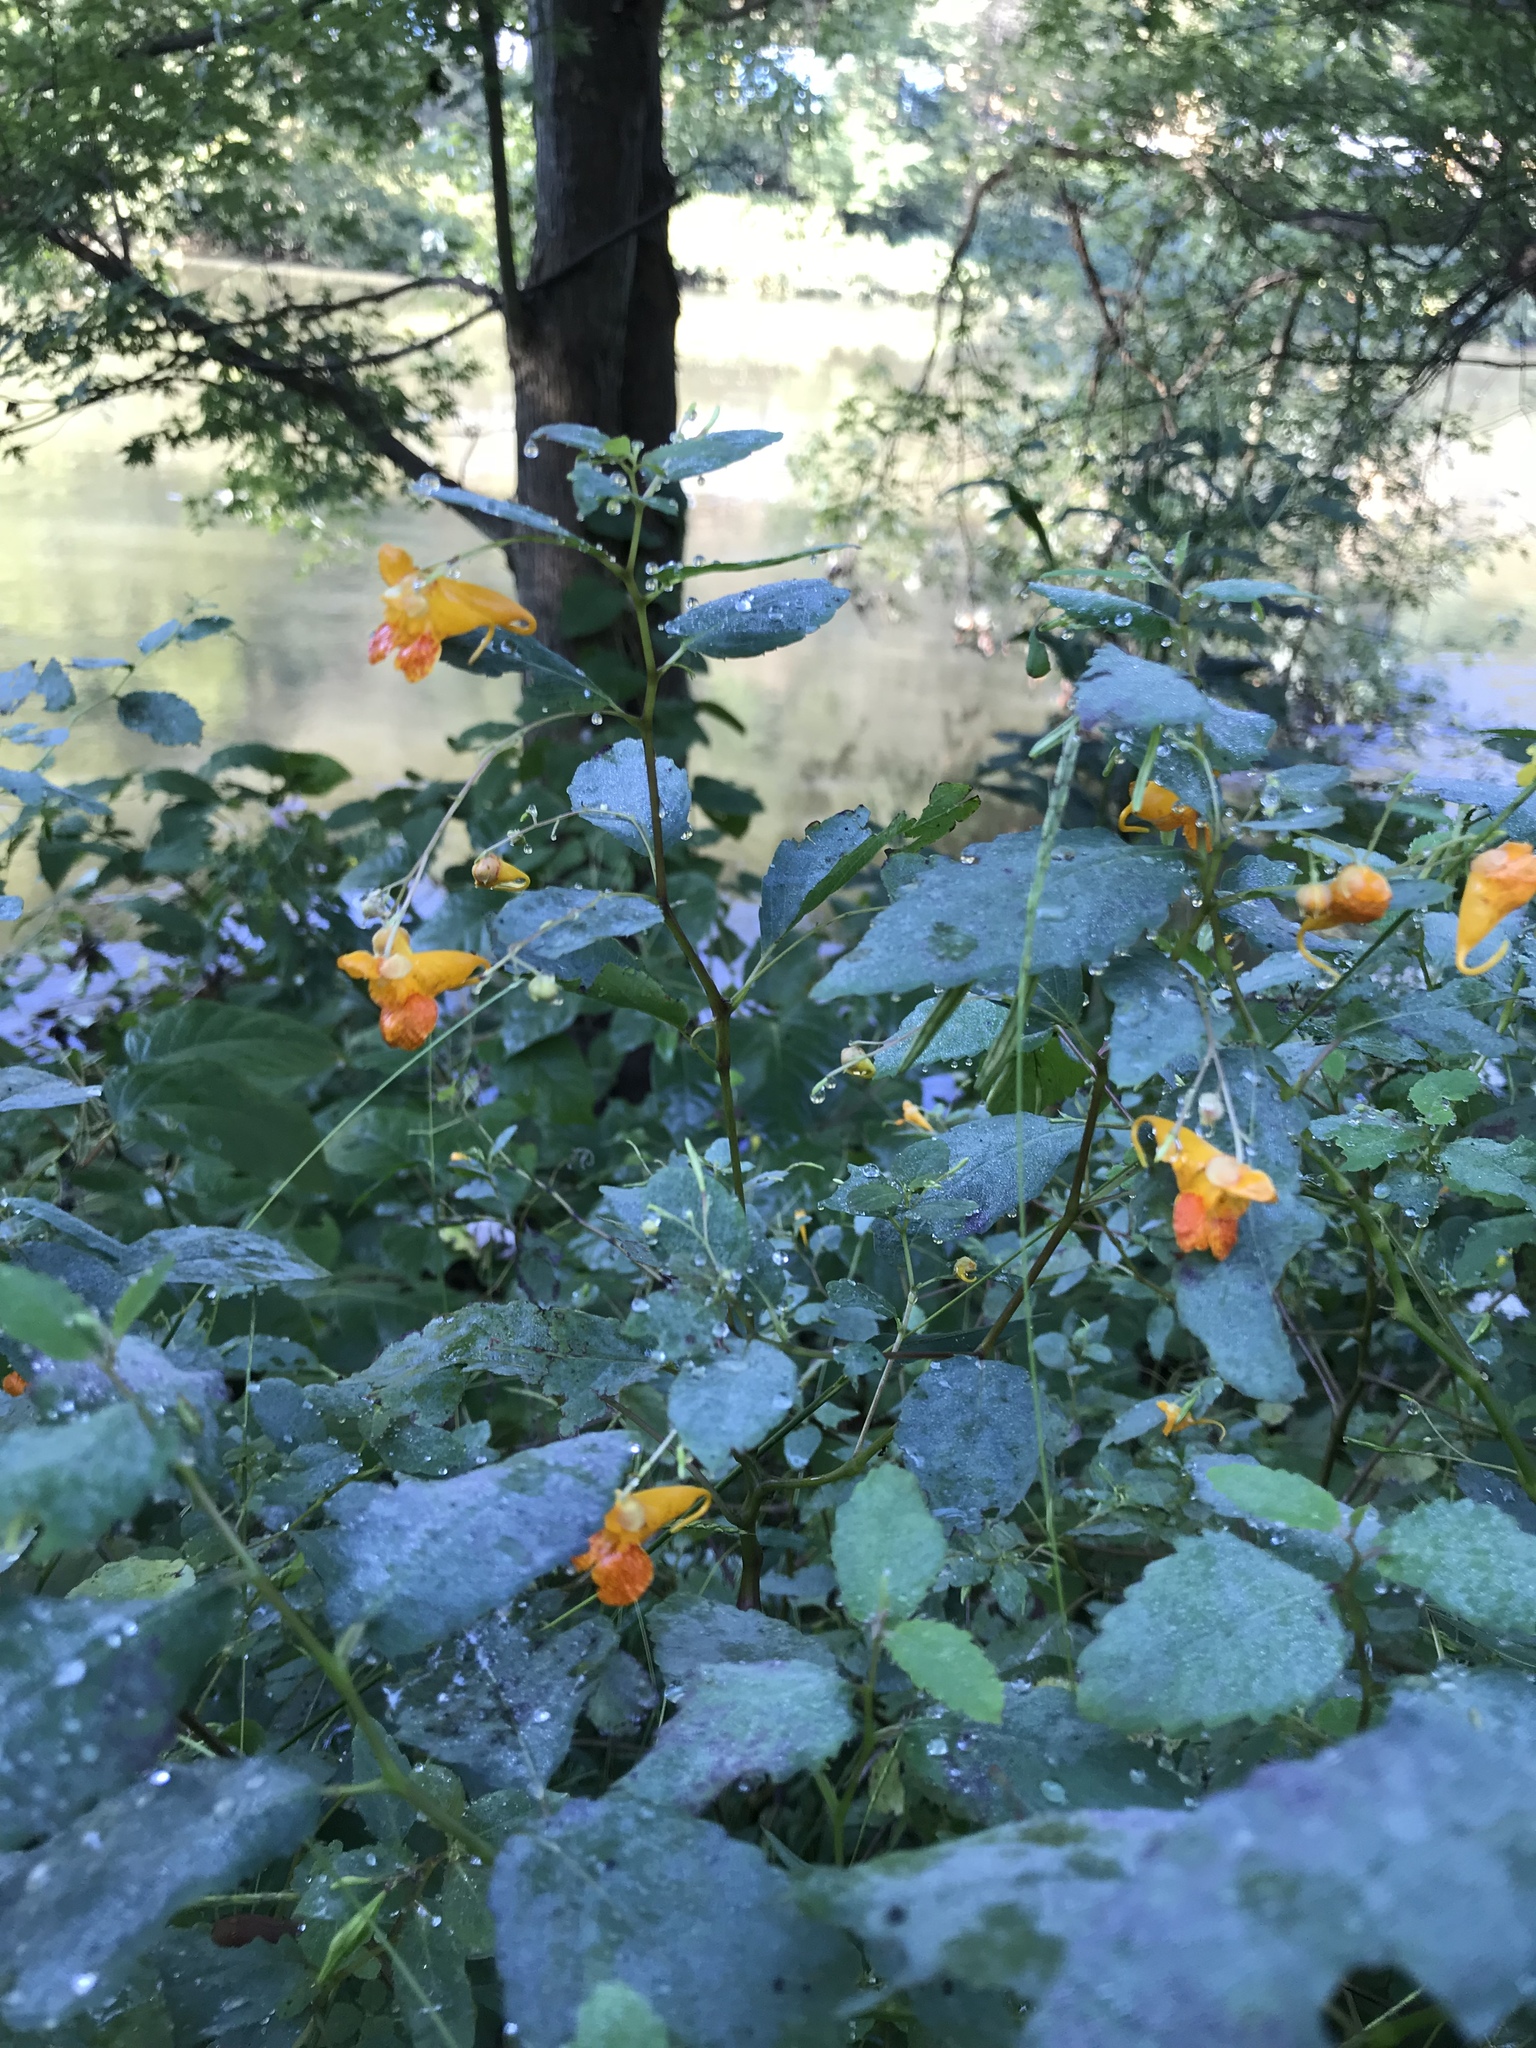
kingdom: Plantae
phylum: Tracheophyta
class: Magnoliopsida
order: Ericales
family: Balsaminaceae
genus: Impatiens
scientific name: Impatiens capensis
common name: Orange balsam
